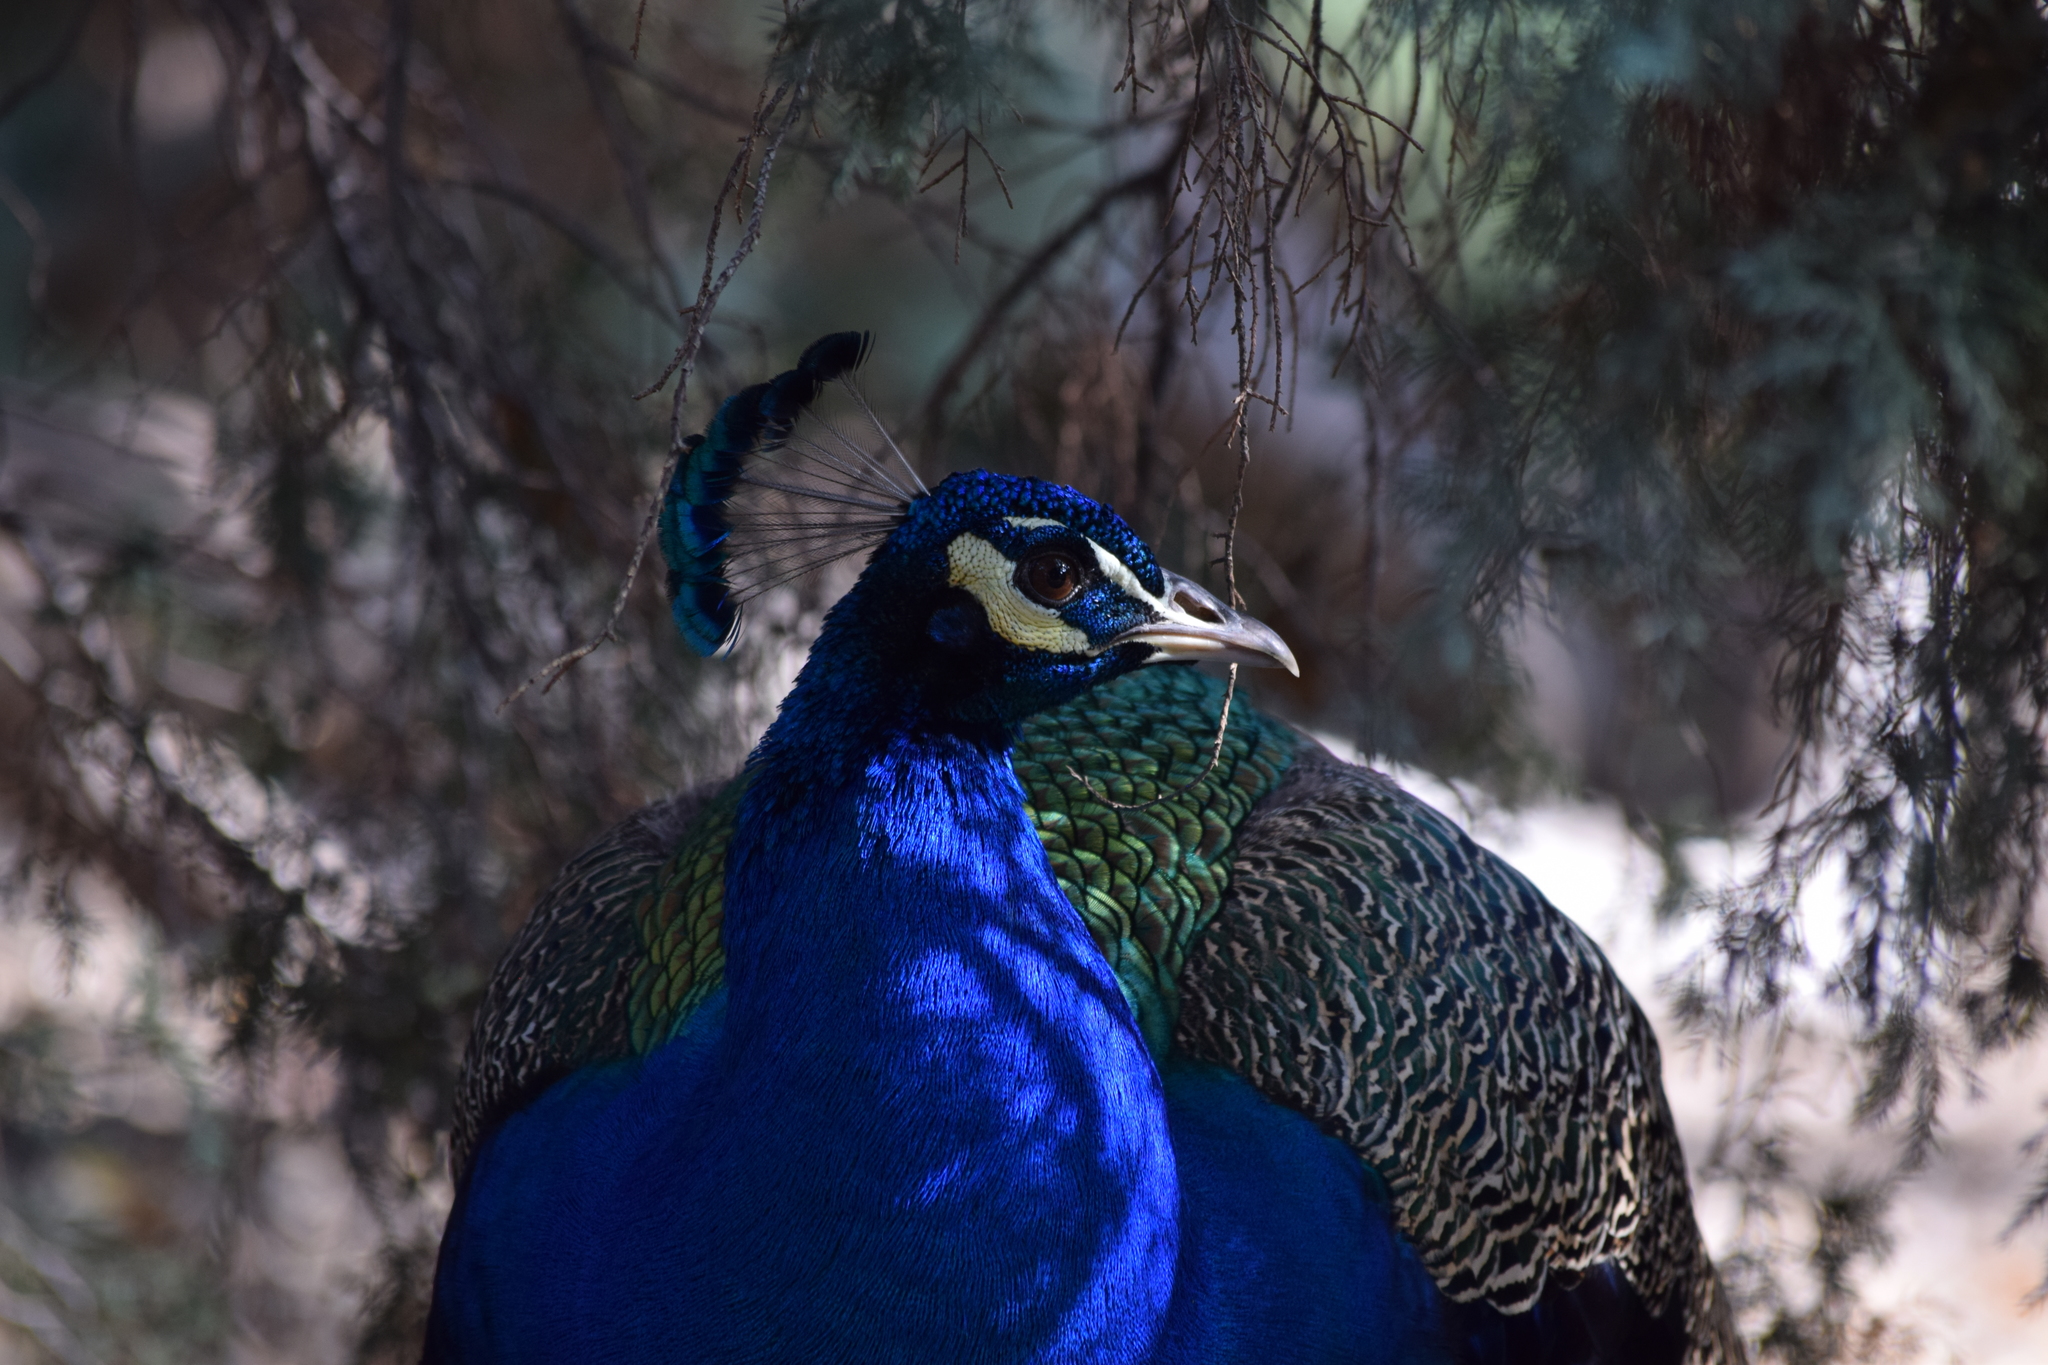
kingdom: Animalia
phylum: Chordata
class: Aves
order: Galliformes
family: Phasianidae
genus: Pavo
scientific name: Pavo cristatus
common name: Indian peafowl
